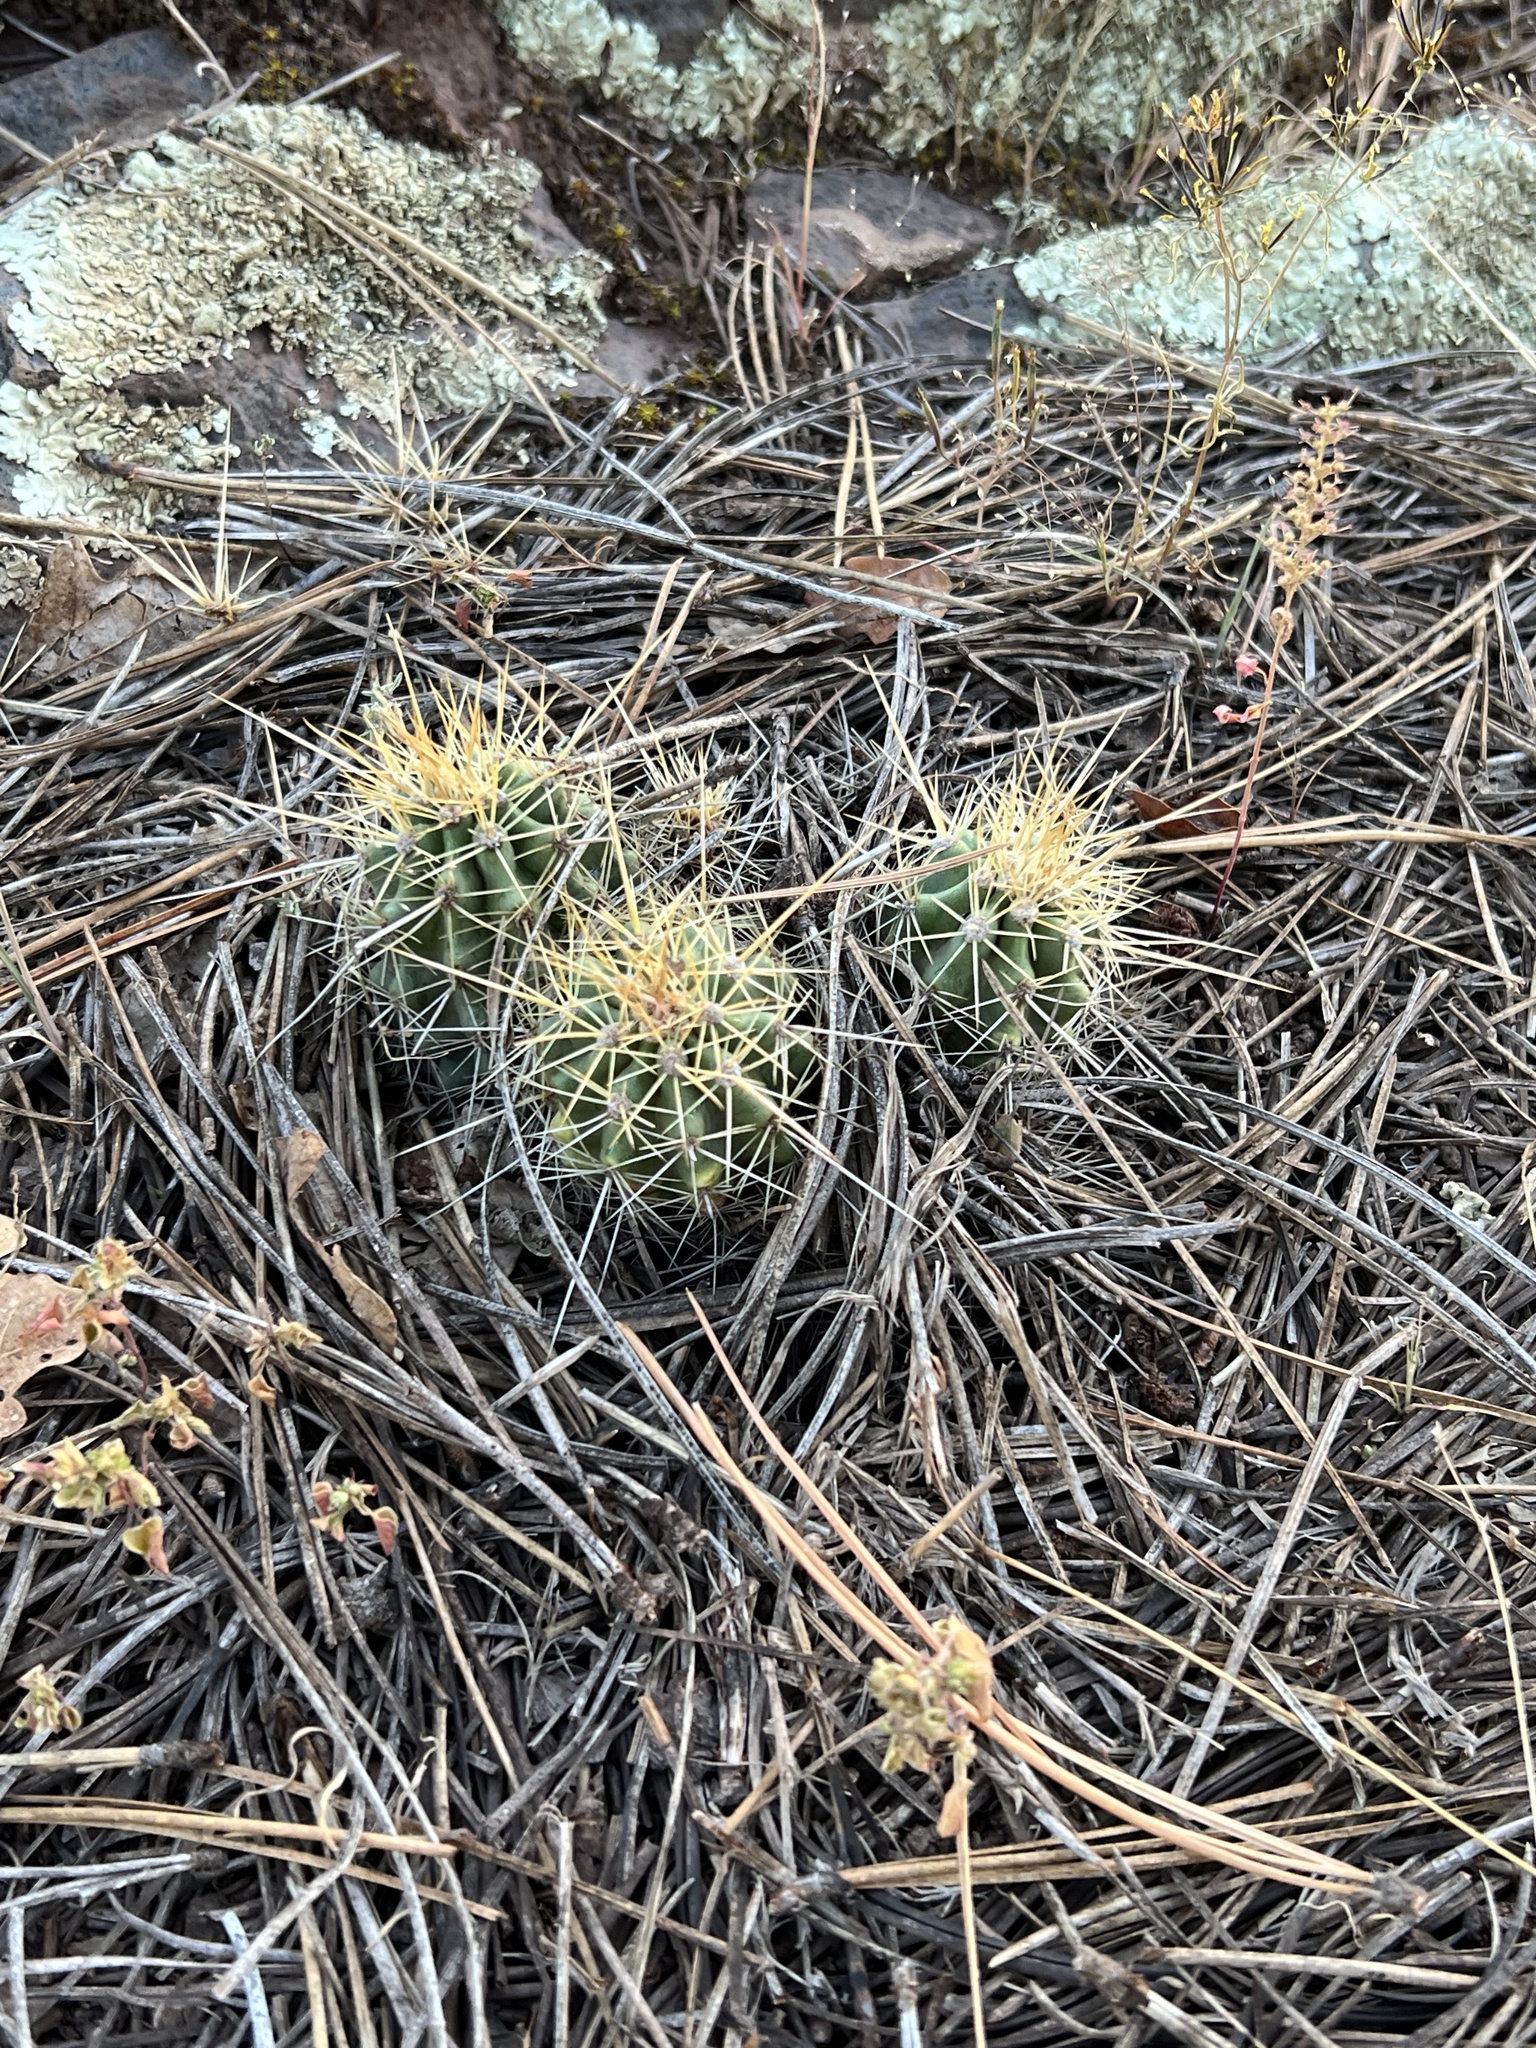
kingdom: Plantae
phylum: Tracheophyta
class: Magnoliopsida
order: Caryophyllales
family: Cactaceae
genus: Echinocereus
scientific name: Echinocereus bakeri
